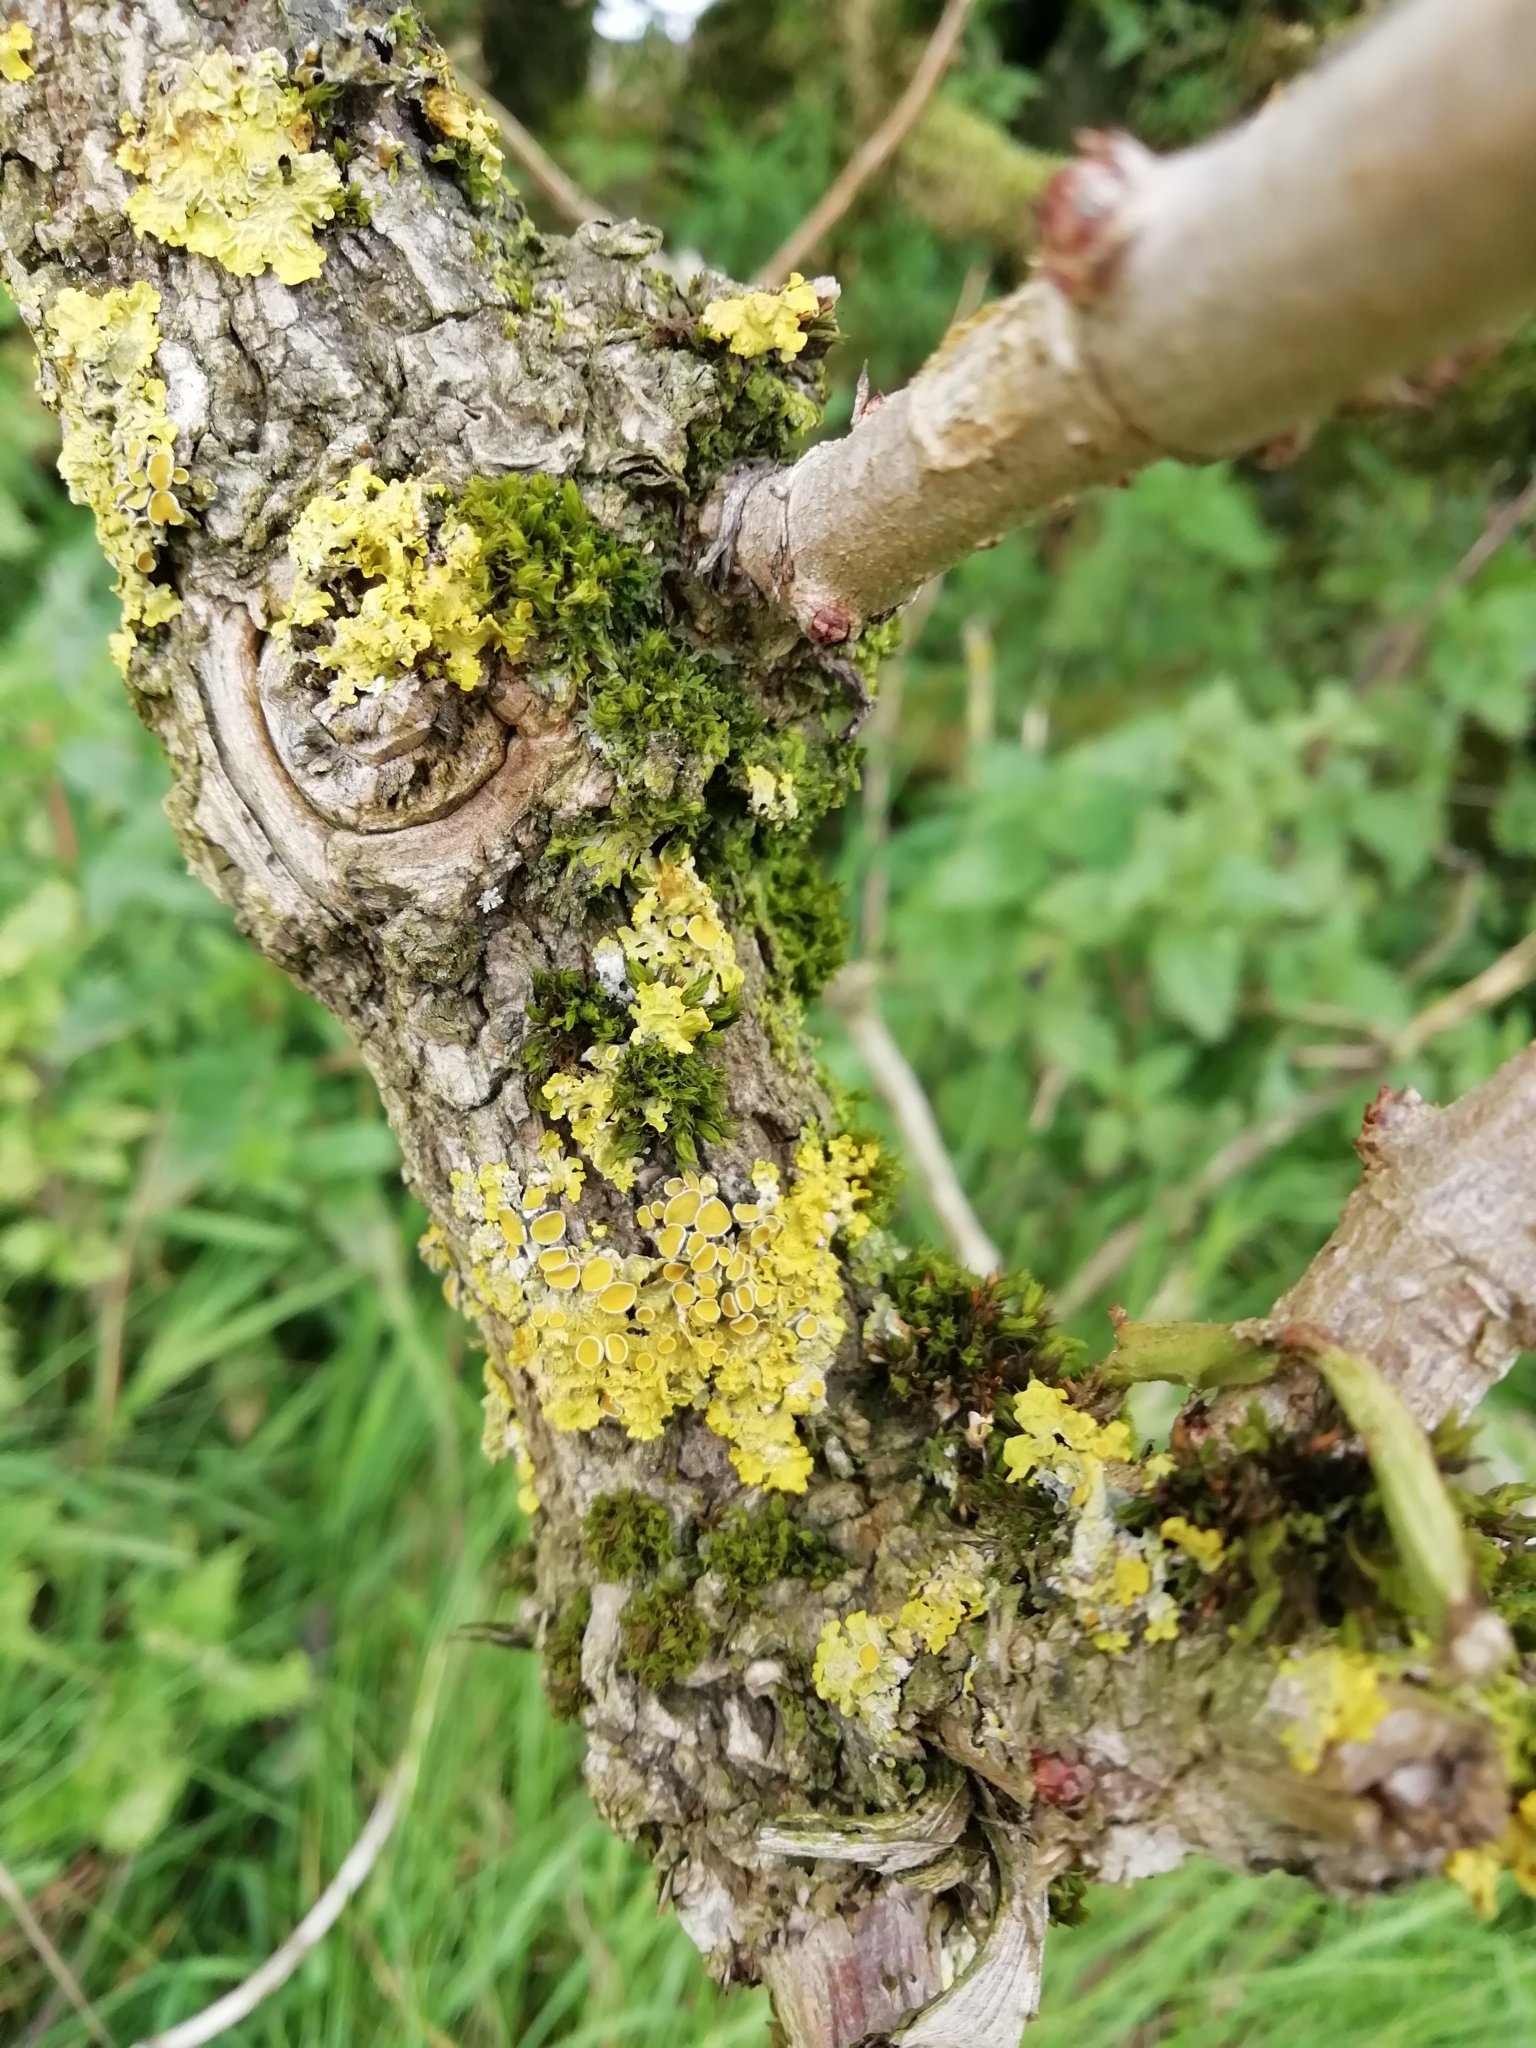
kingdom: Fungi
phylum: Ascomycota
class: Lecanoromycetes
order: Teloschistales
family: Teloschistaceae
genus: Xanthoria
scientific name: Xanthoria parietina
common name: Common orange lichen
